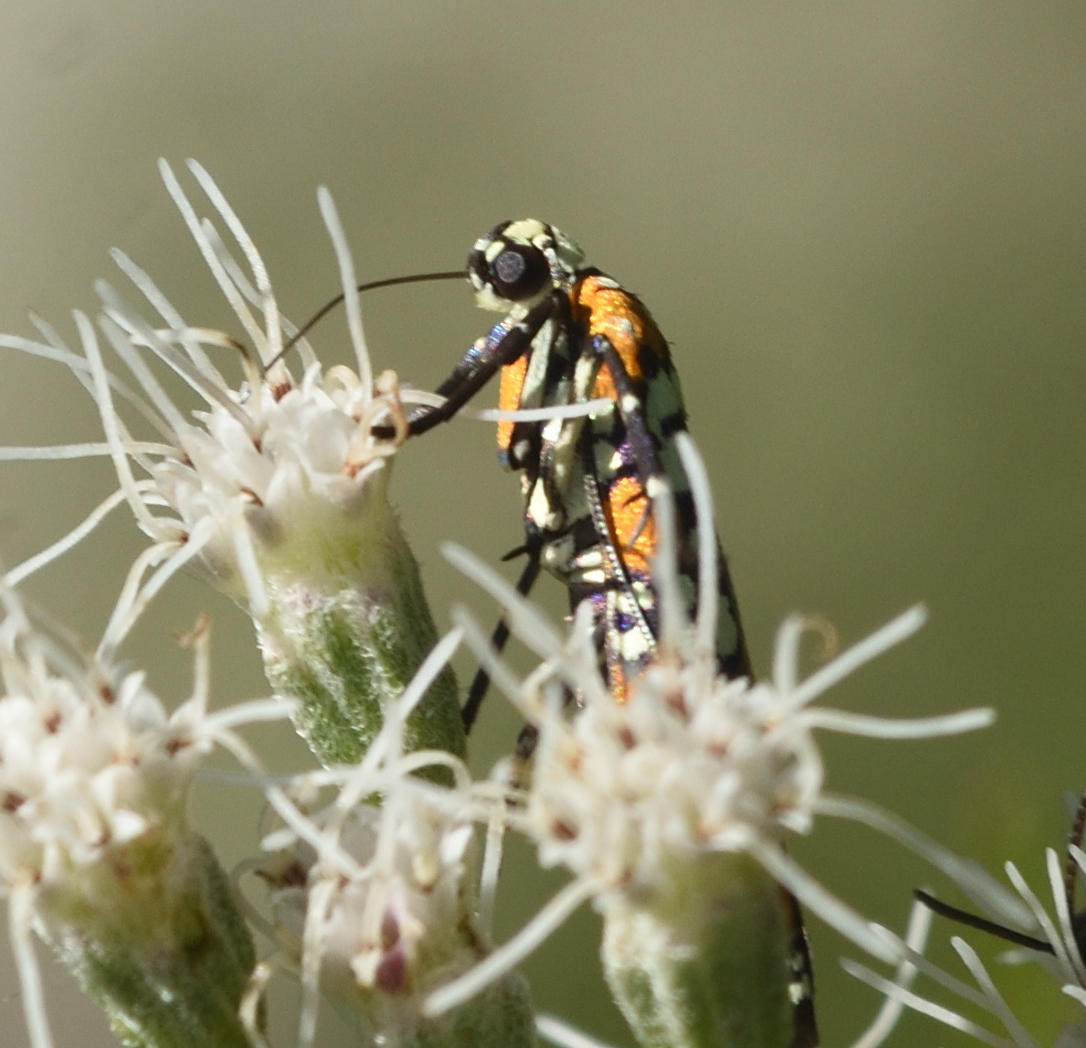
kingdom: Animalia
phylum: Arthropoda
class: Insecta
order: Lepidoptera
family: Attevidae
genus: Atteva
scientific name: Atteva punctella
